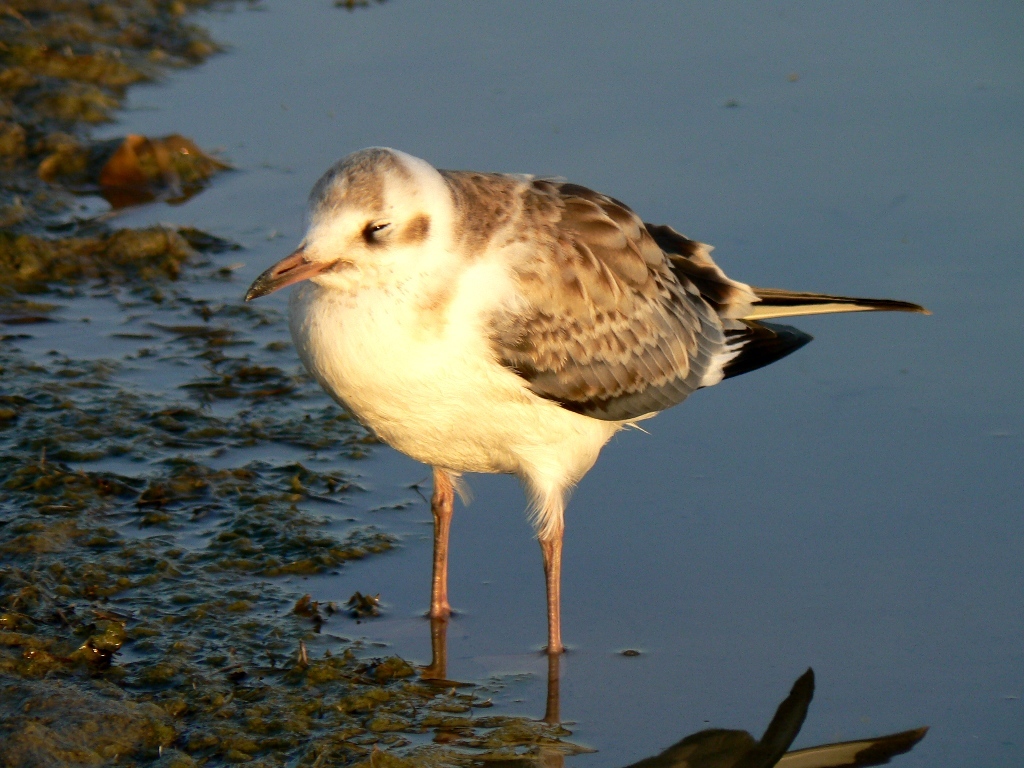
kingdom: Animalia
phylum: Chordata
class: Aves
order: Charadriiformes
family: Laridae
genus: Chroicocephalus
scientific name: Chroicocephalus ridibundus
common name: Black-headed gull
